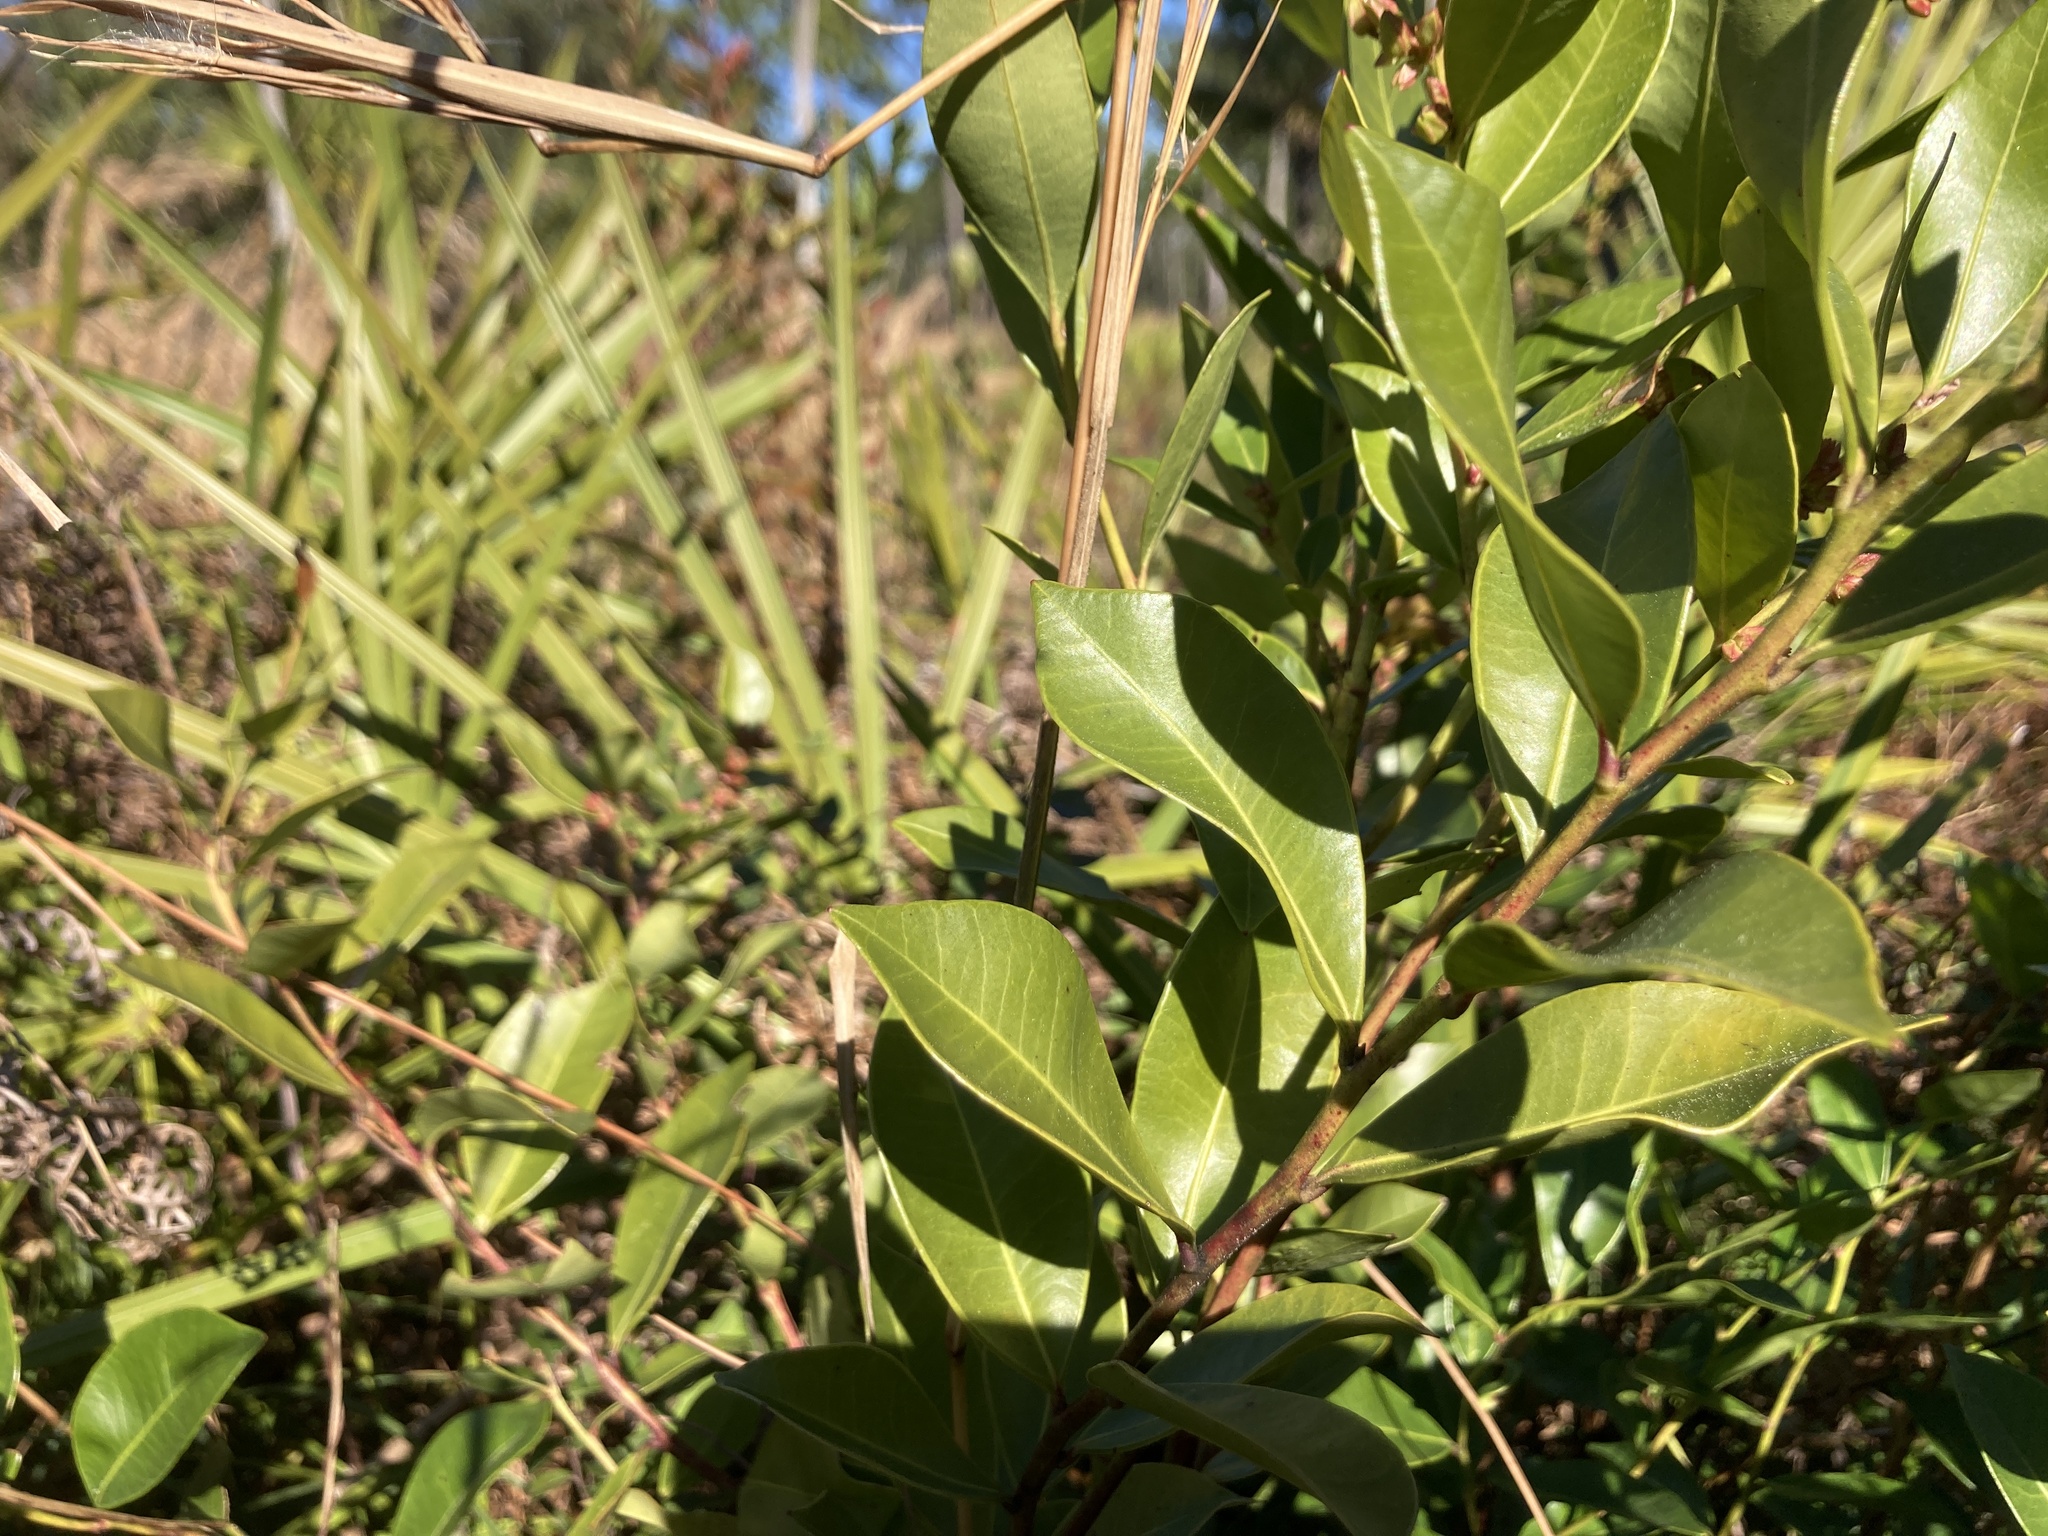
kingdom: Plantae
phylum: Tracheophyta
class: Magnoliopsida
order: Ericales
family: Ericaceae
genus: Lyonia
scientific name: Lyonia lucida
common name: Fetterbush
